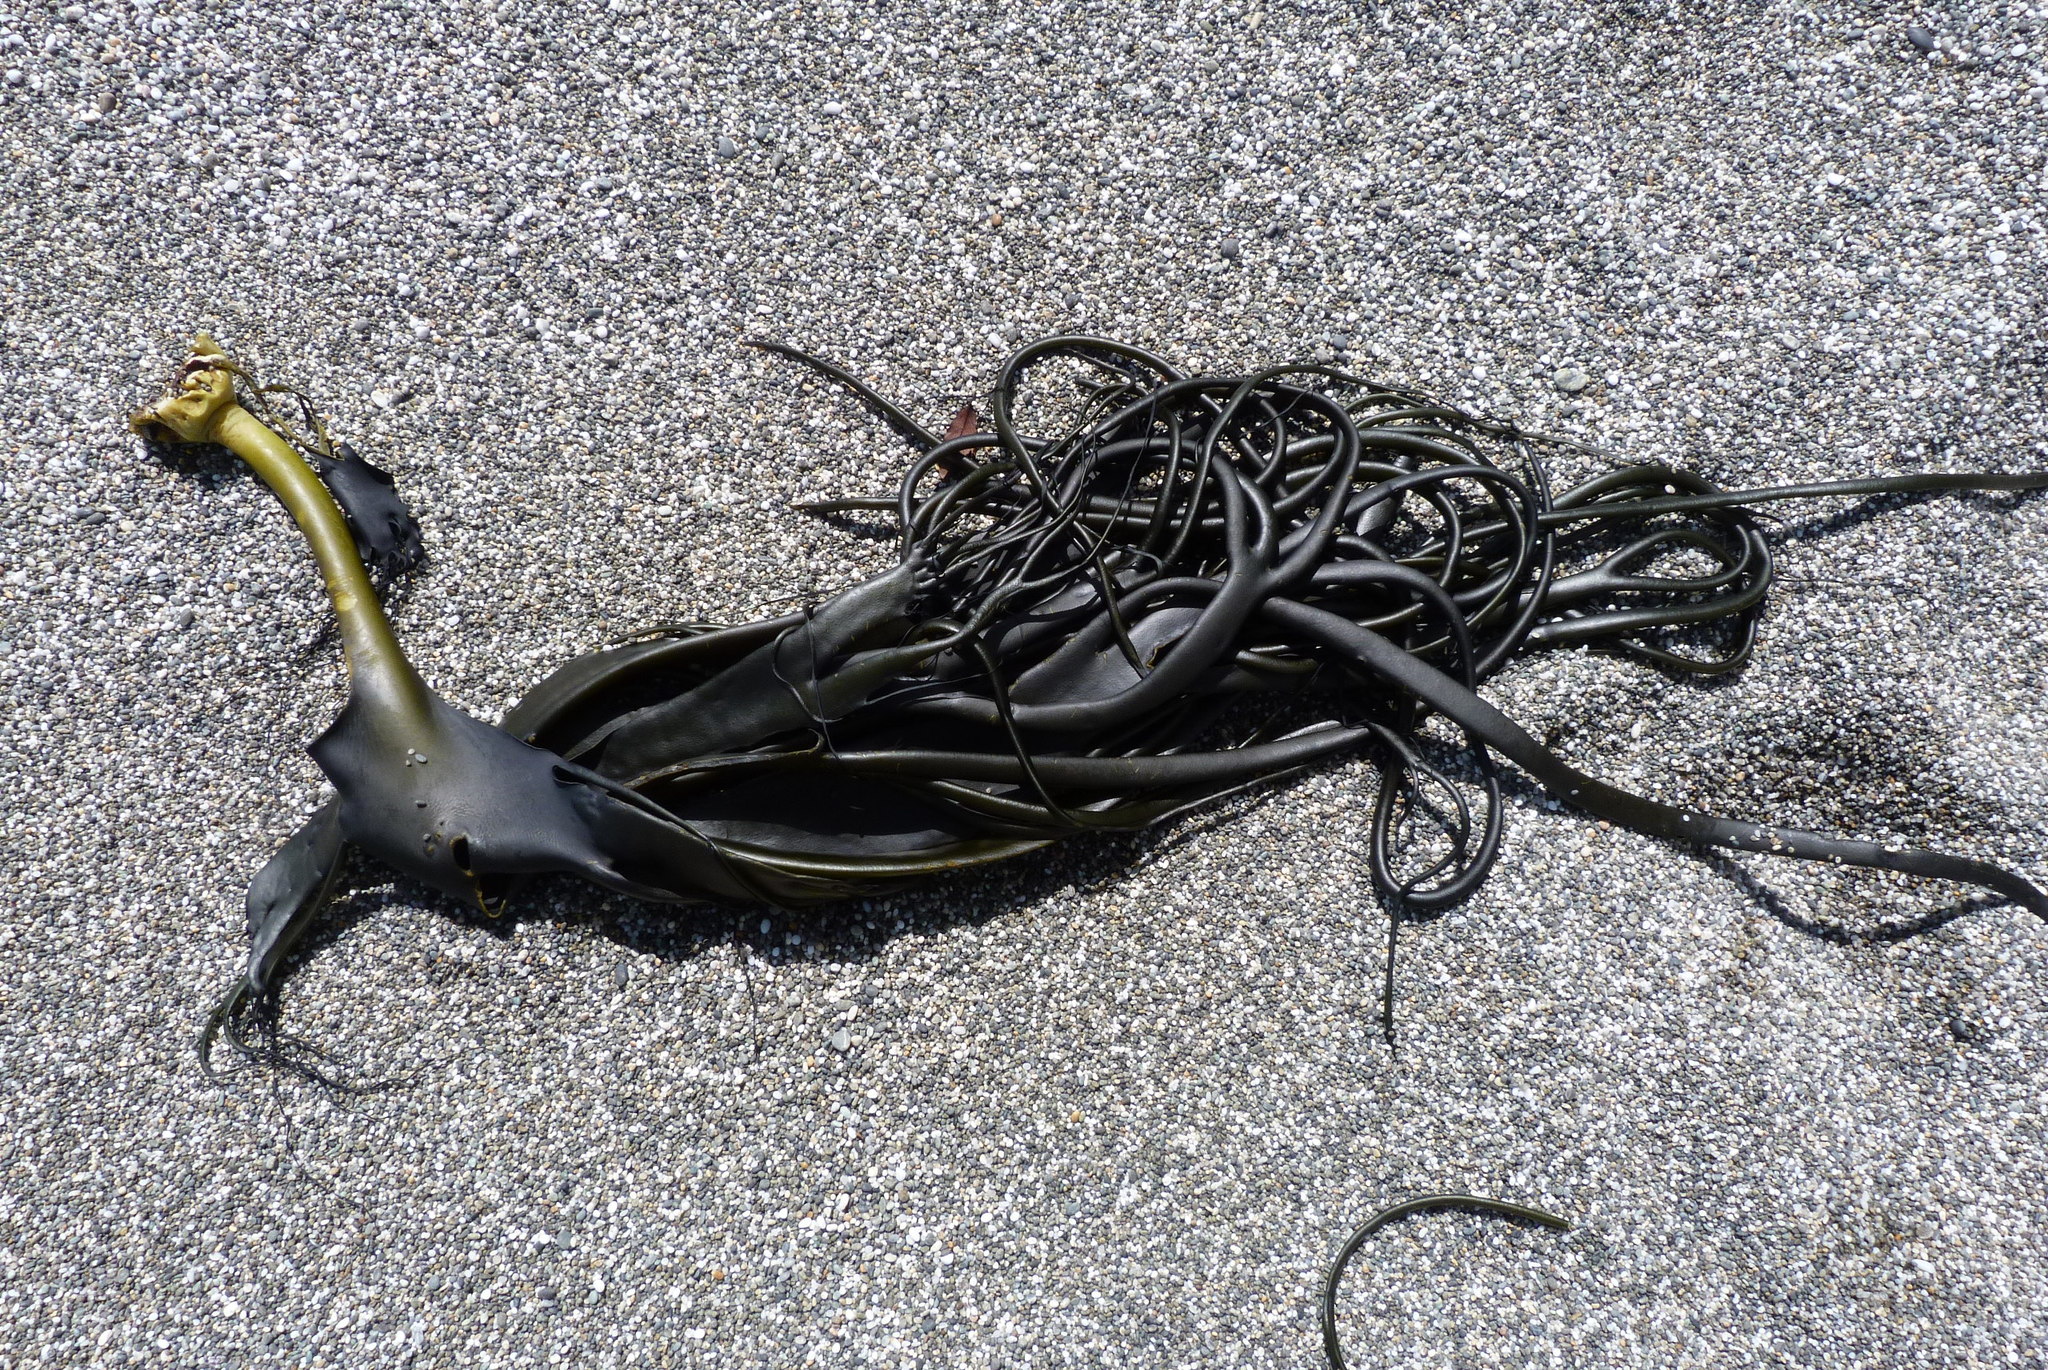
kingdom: Chromista
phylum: Ochrophyta
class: Phaeophyceae
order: Fucales
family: Durvillaeaceae
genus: Durvillaea
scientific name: Durvillaea antarctica
